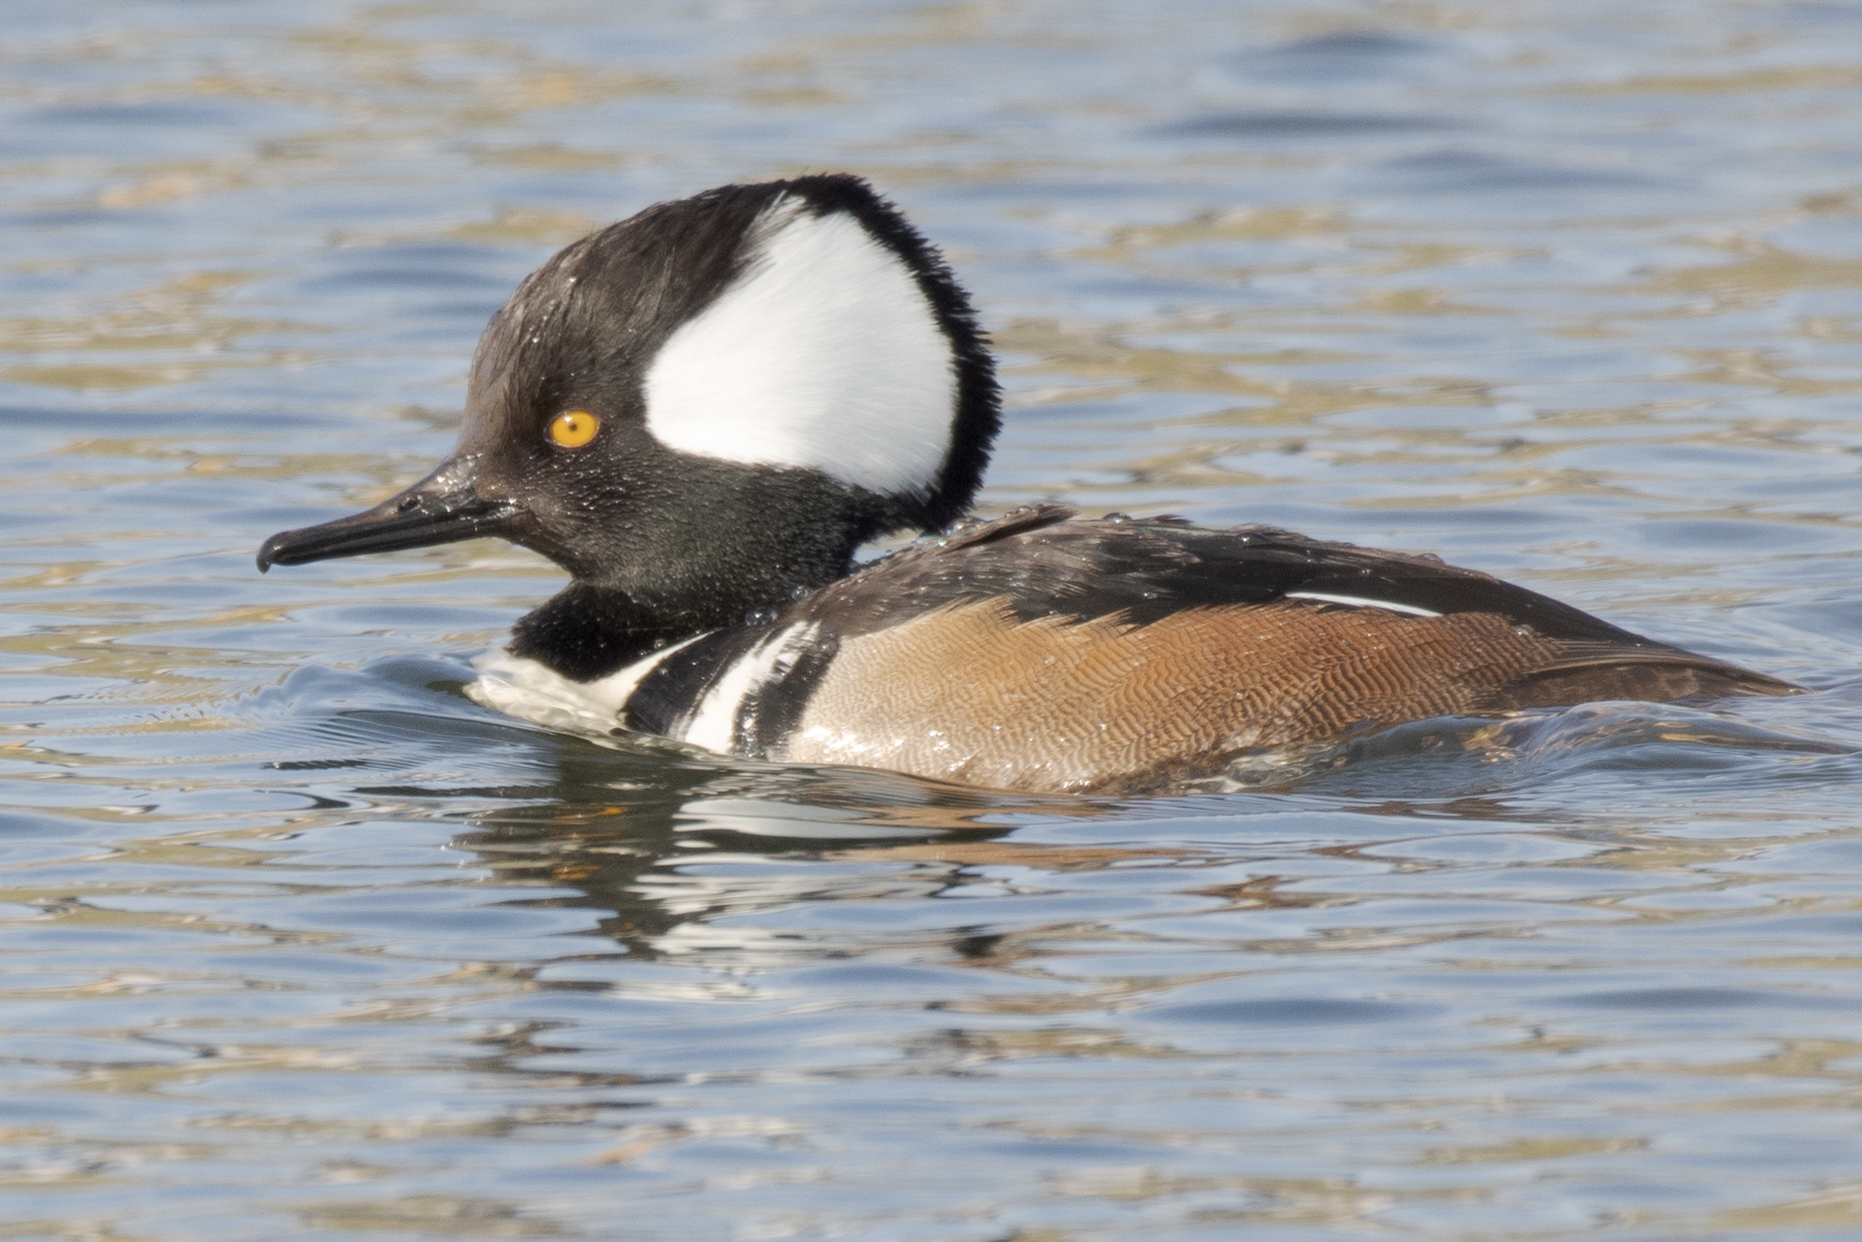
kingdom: Animalia
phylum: Chordata
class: Aves
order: Anseriformes
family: Anatidae
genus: Lophodytes
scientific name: Lophodytes cucullatus
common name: Hooded merganser
